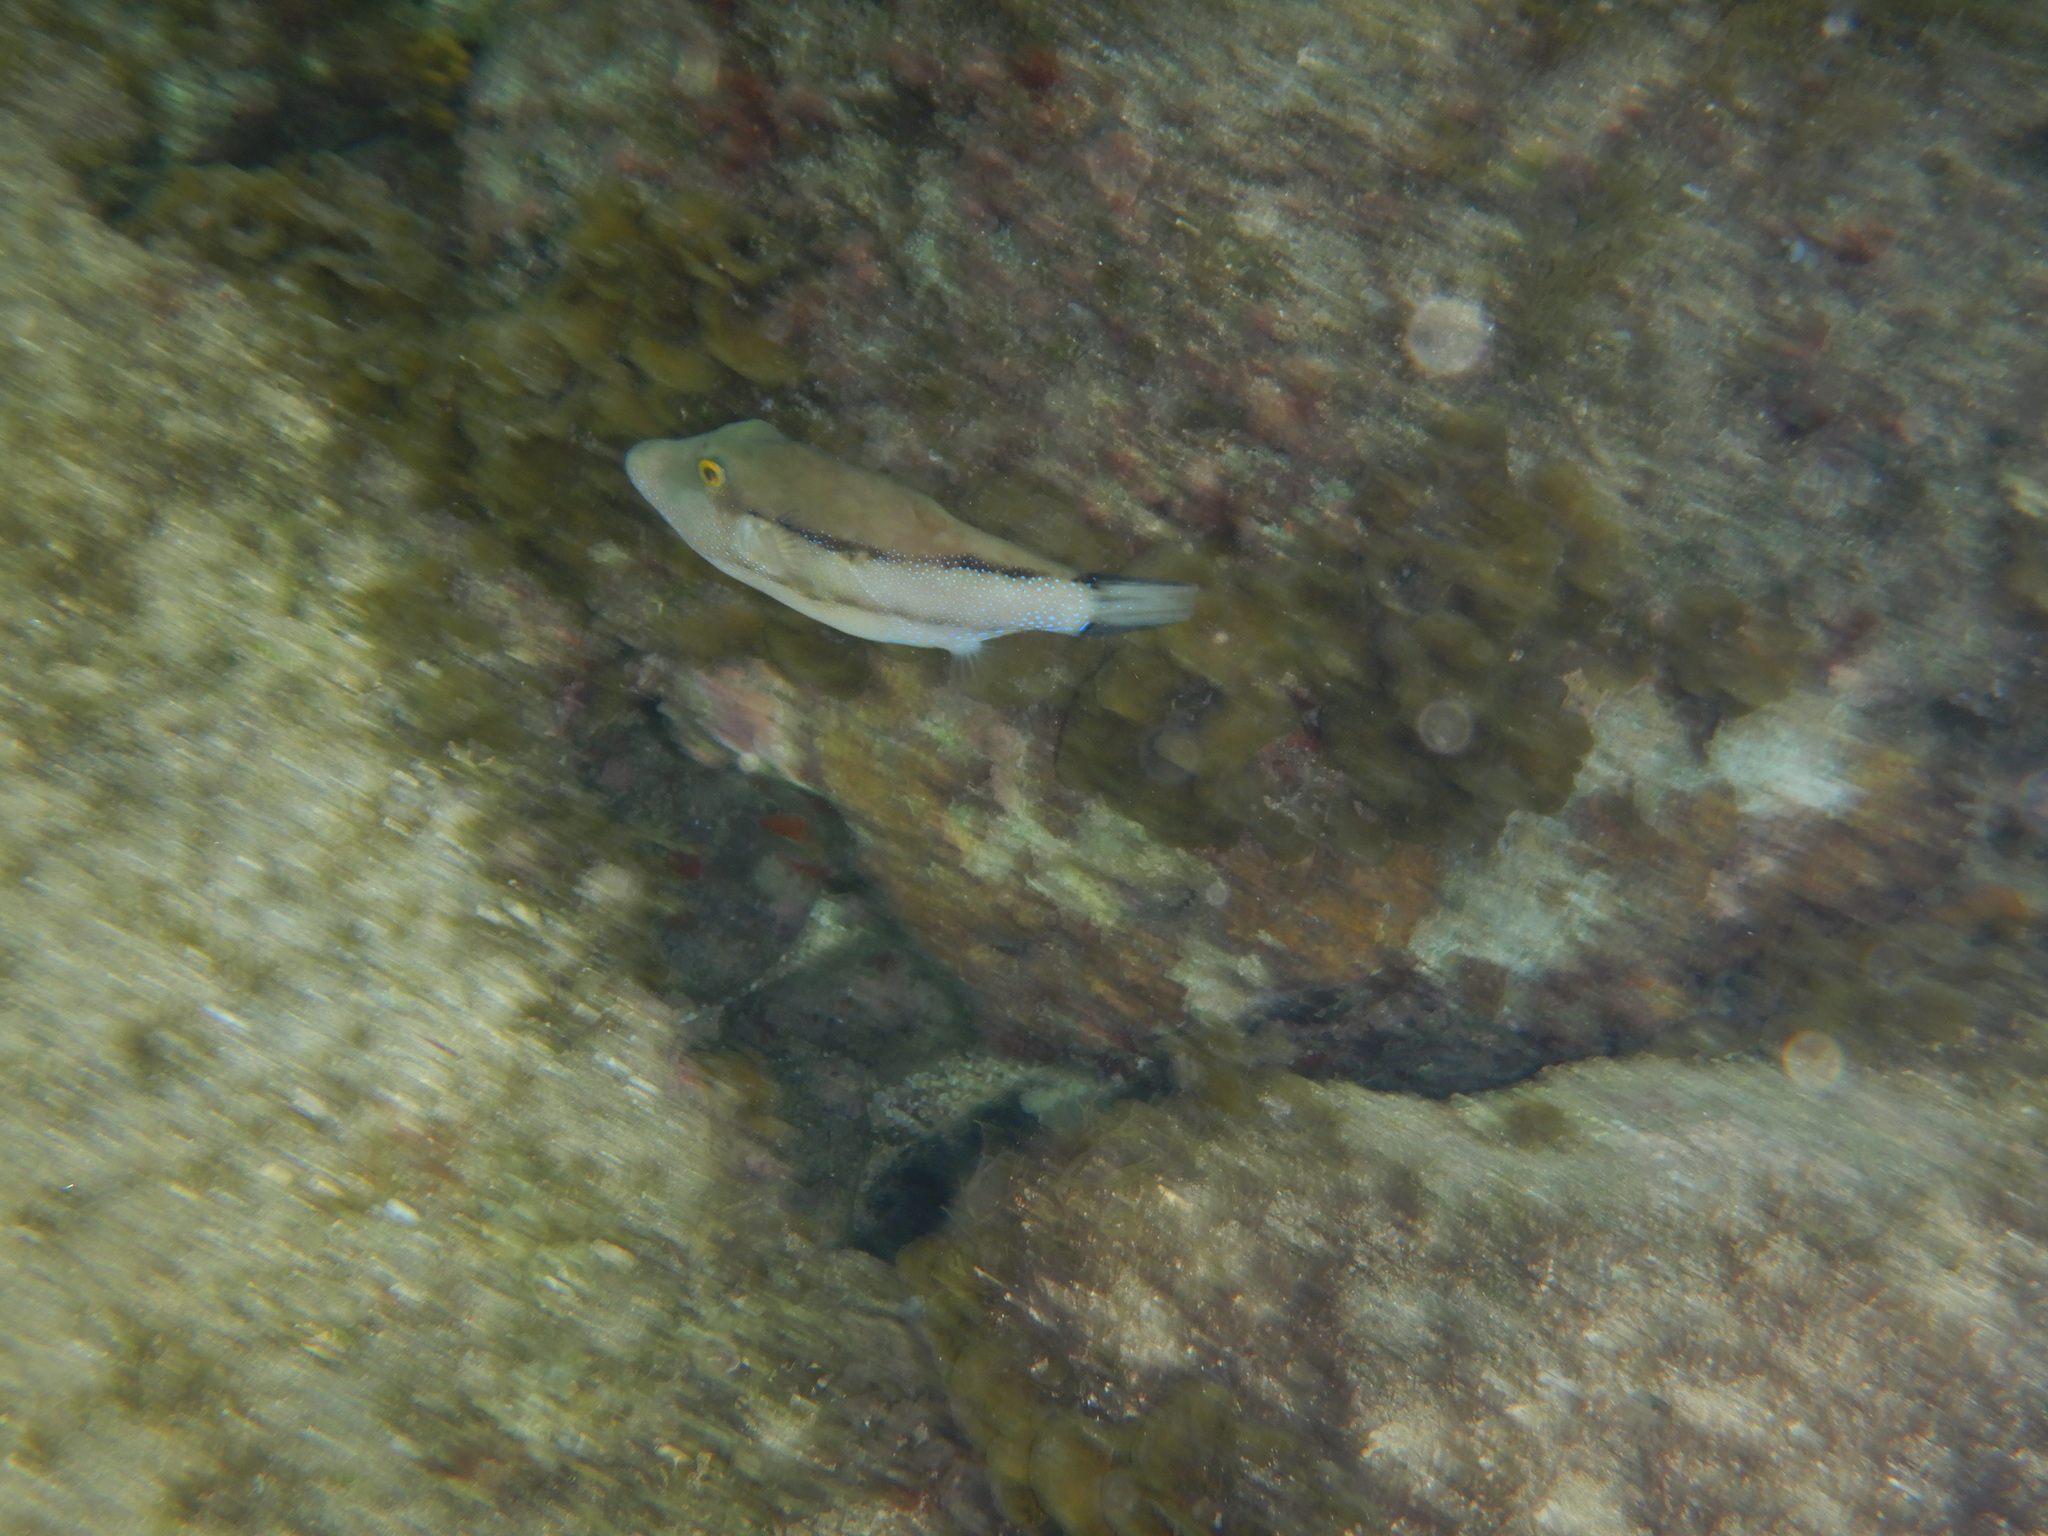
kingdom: Animalia
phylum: Chordata
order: Tetraodontiformes
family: Tetraodontidae
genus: Canthigaster
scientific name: Canthigaster capistrata
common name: Macaronesian sharpnose-puffer
